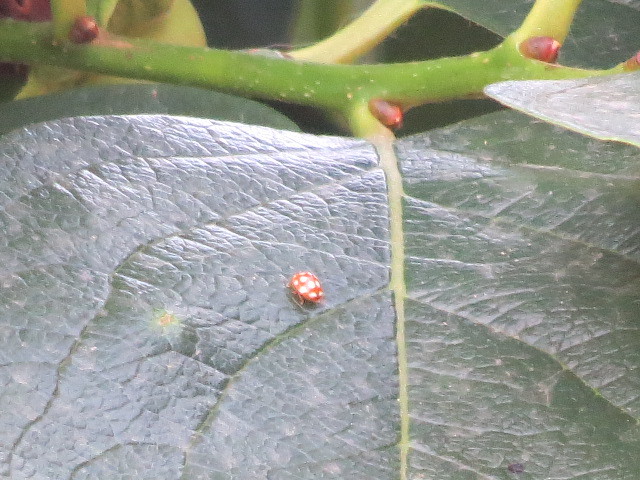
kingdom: Animalia
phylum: Arthropoda
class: Insecta
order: Coleoptera
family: Coccinellidae
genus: Vibidia
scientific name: Vibidia duodecimguttata
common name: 12-spot ladybird
